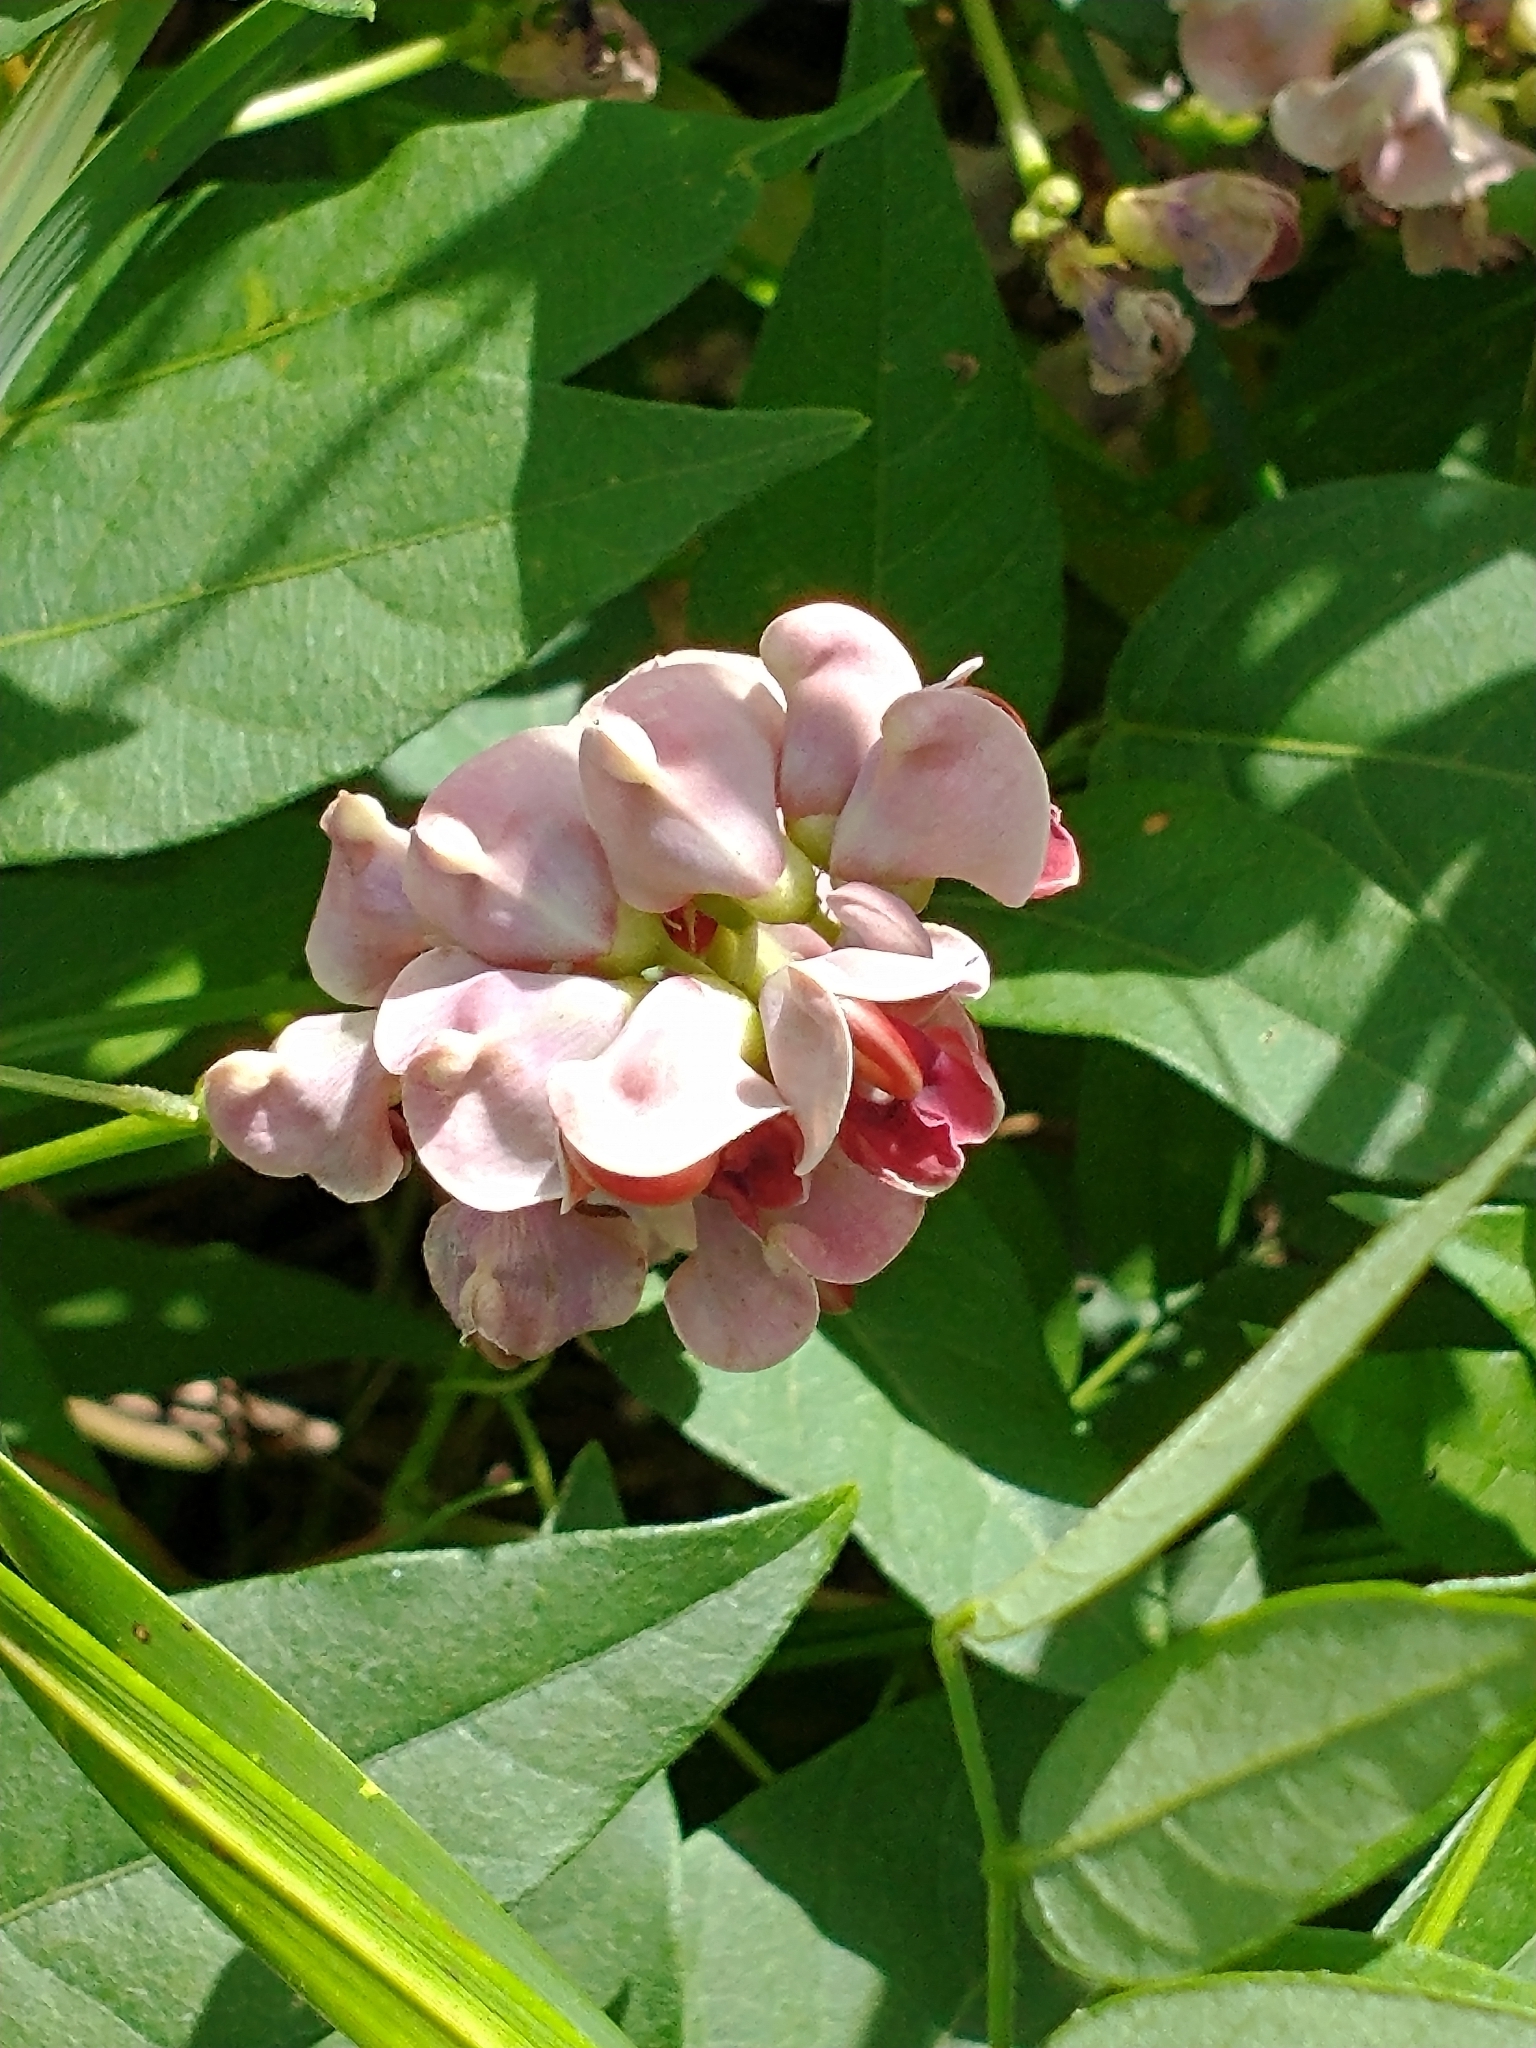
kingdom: Plantae
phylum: Tracheophyta
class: Magnoliopsida
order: Fabales
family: Fabaceae
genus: Apios
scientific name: Apios americana
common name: American potato-bean
